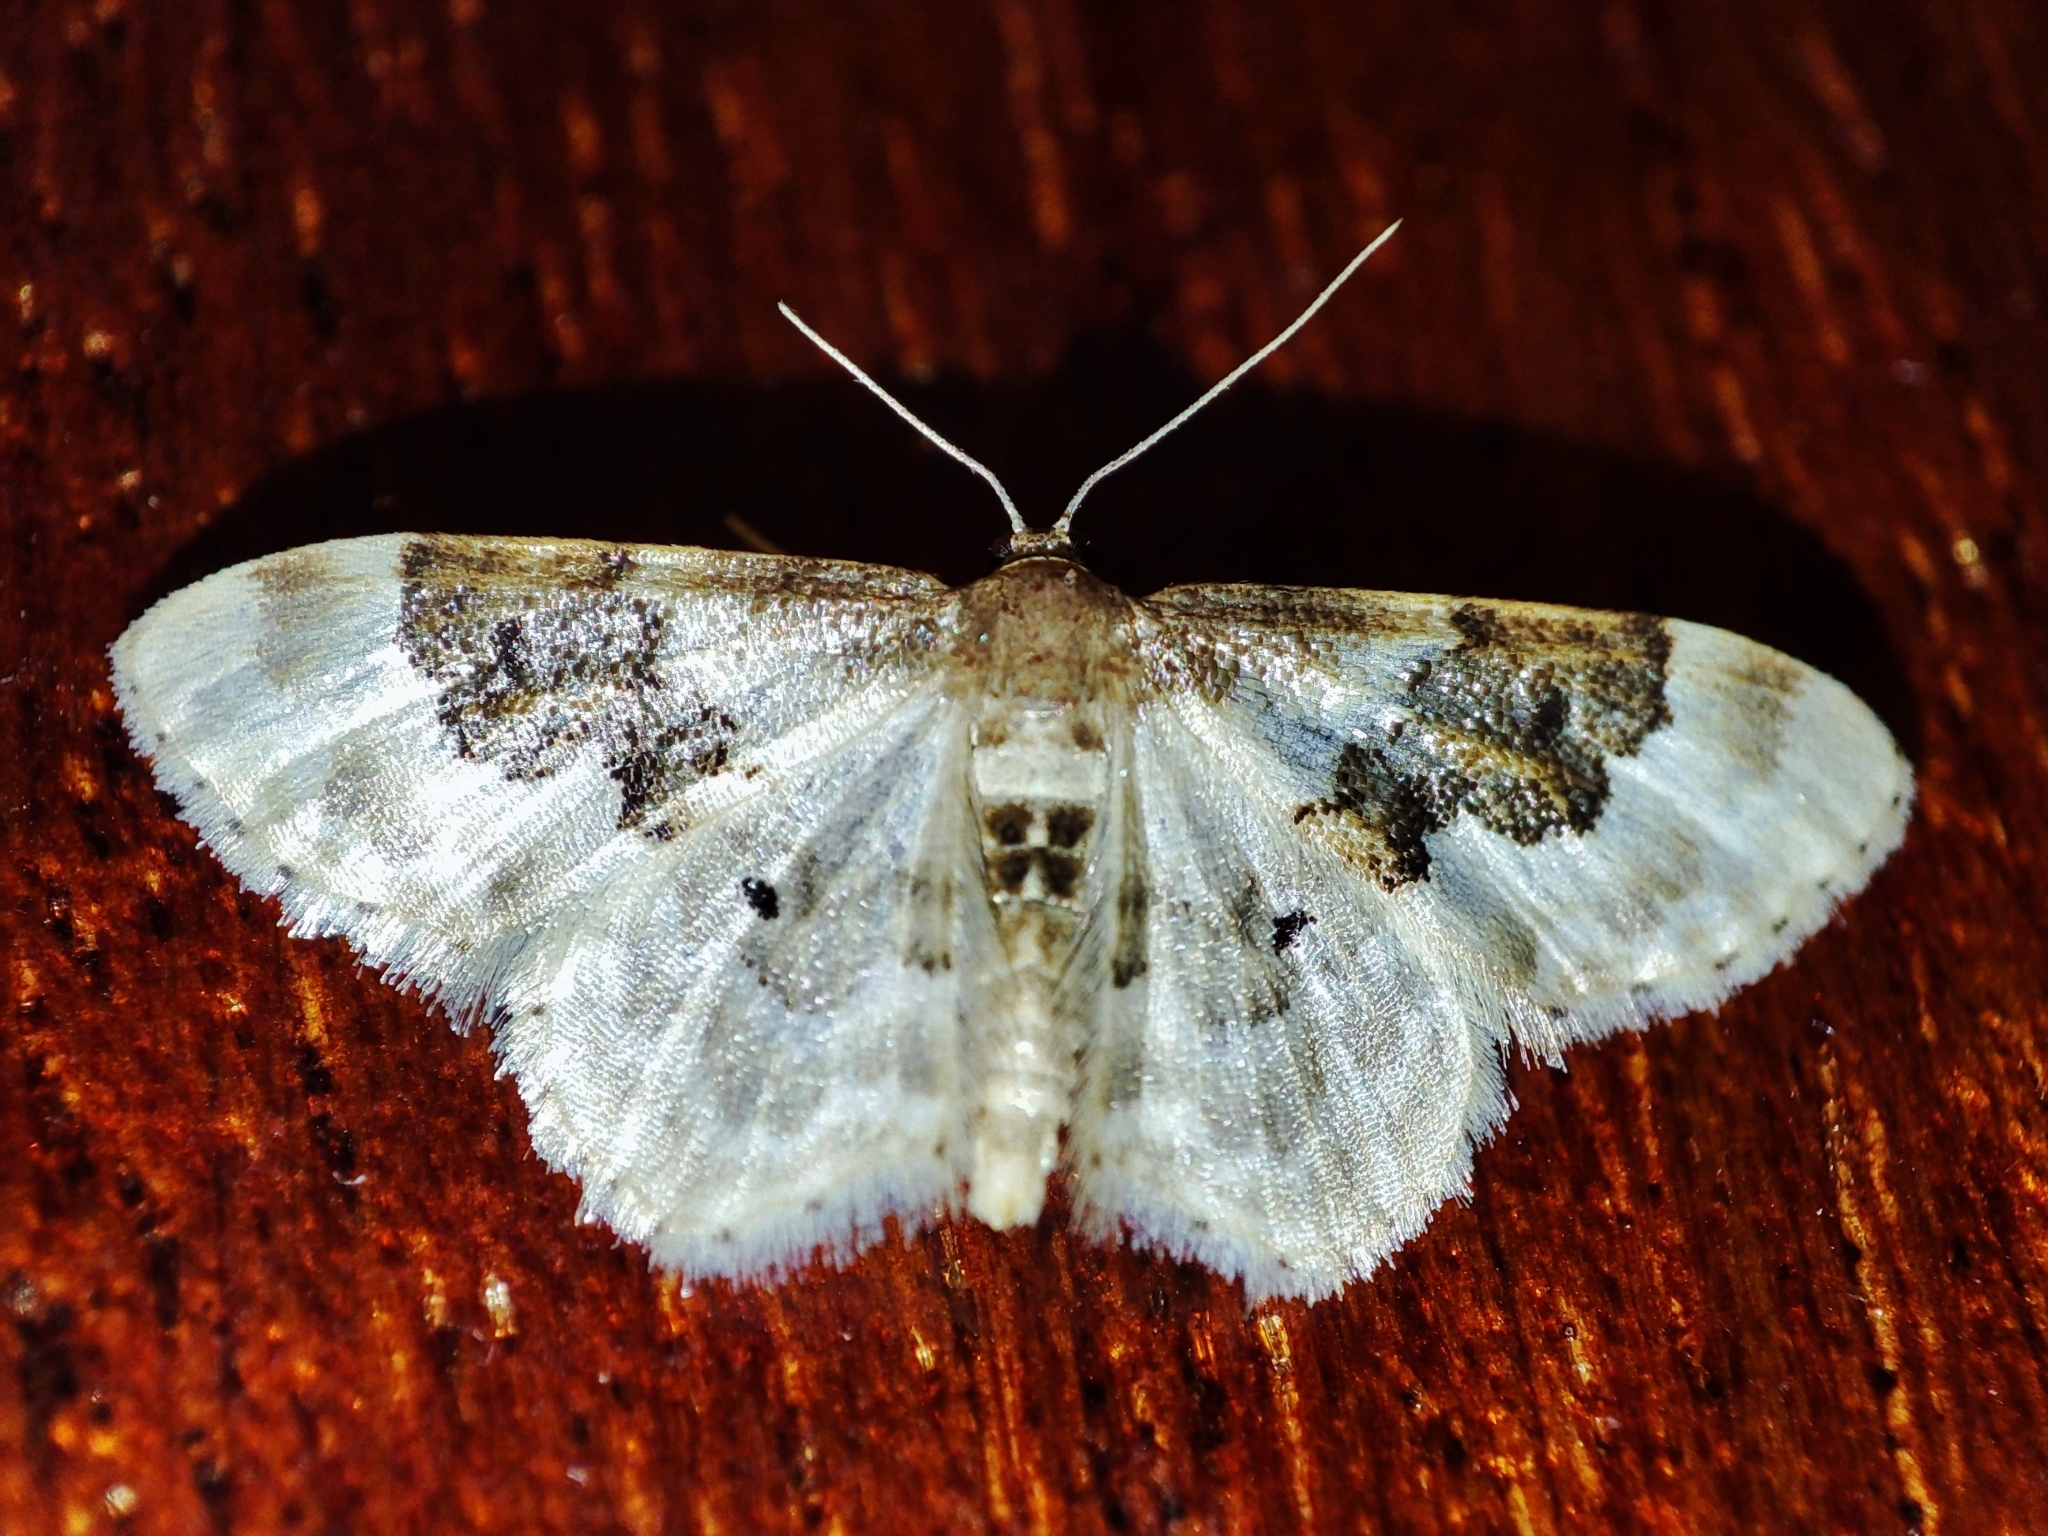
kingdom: Animalia
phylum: Arthropoda
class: Insecta
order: Lepidoptera
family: Geometridae
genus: Idaea
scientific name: Idaea rusticata
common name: Least carpet
